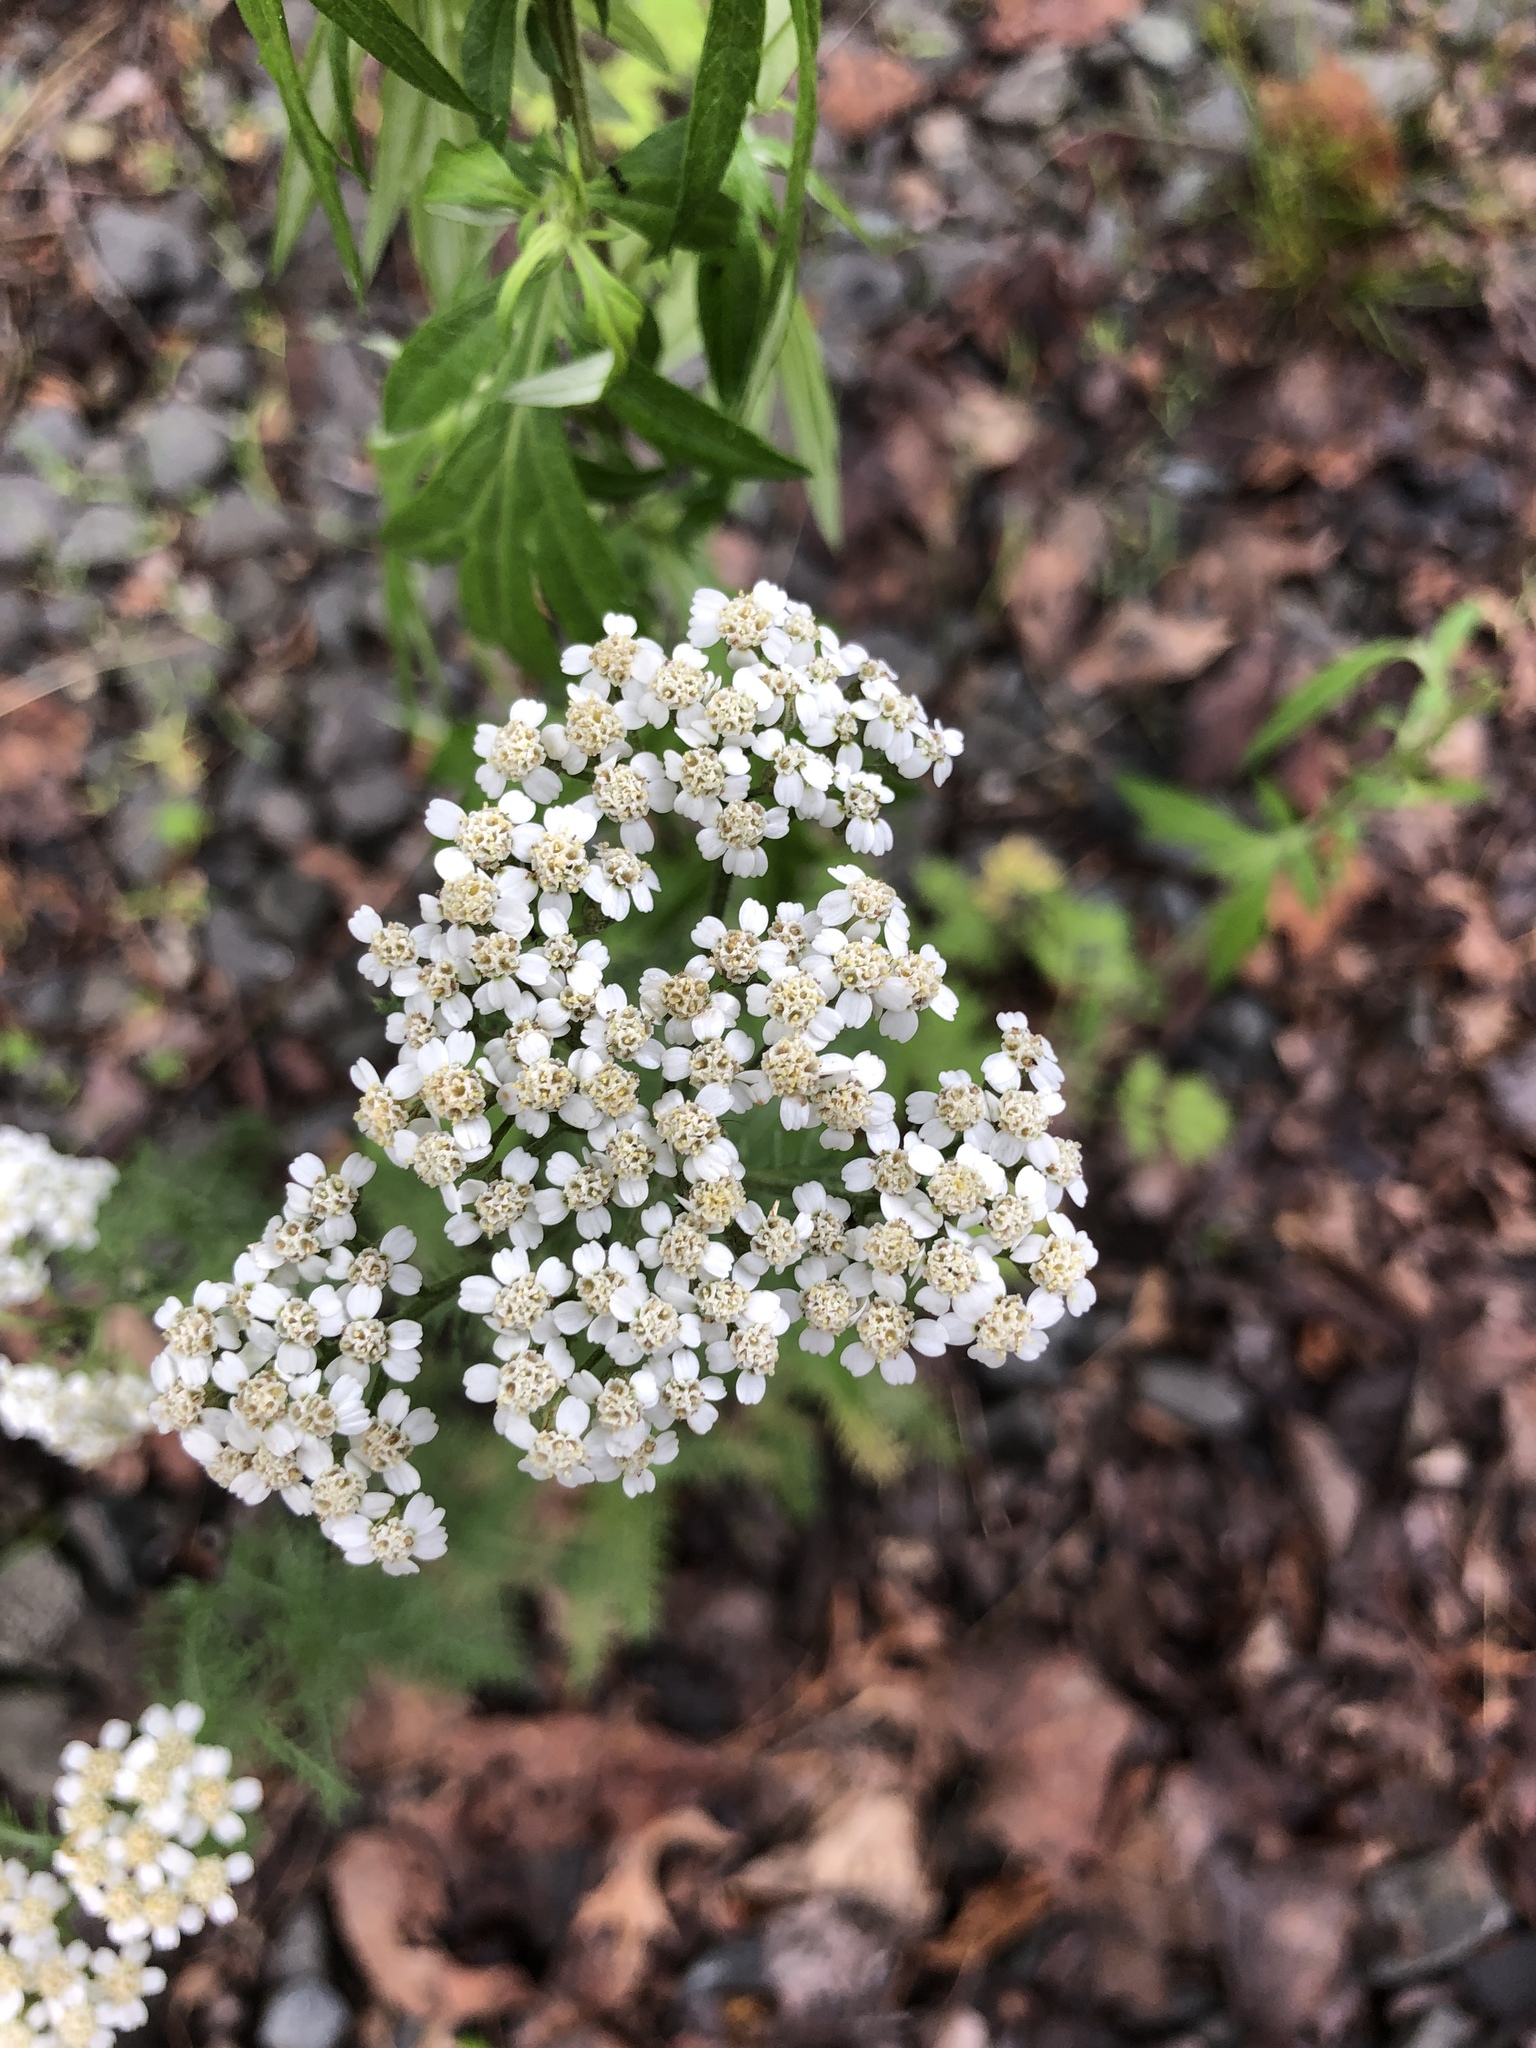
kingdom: Plantae
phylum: Tracheophyta
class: Magnoliopsida
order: Asterales
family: Asteraceae
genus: Achillea
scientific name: Achillea millefolium
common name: Yarrow
